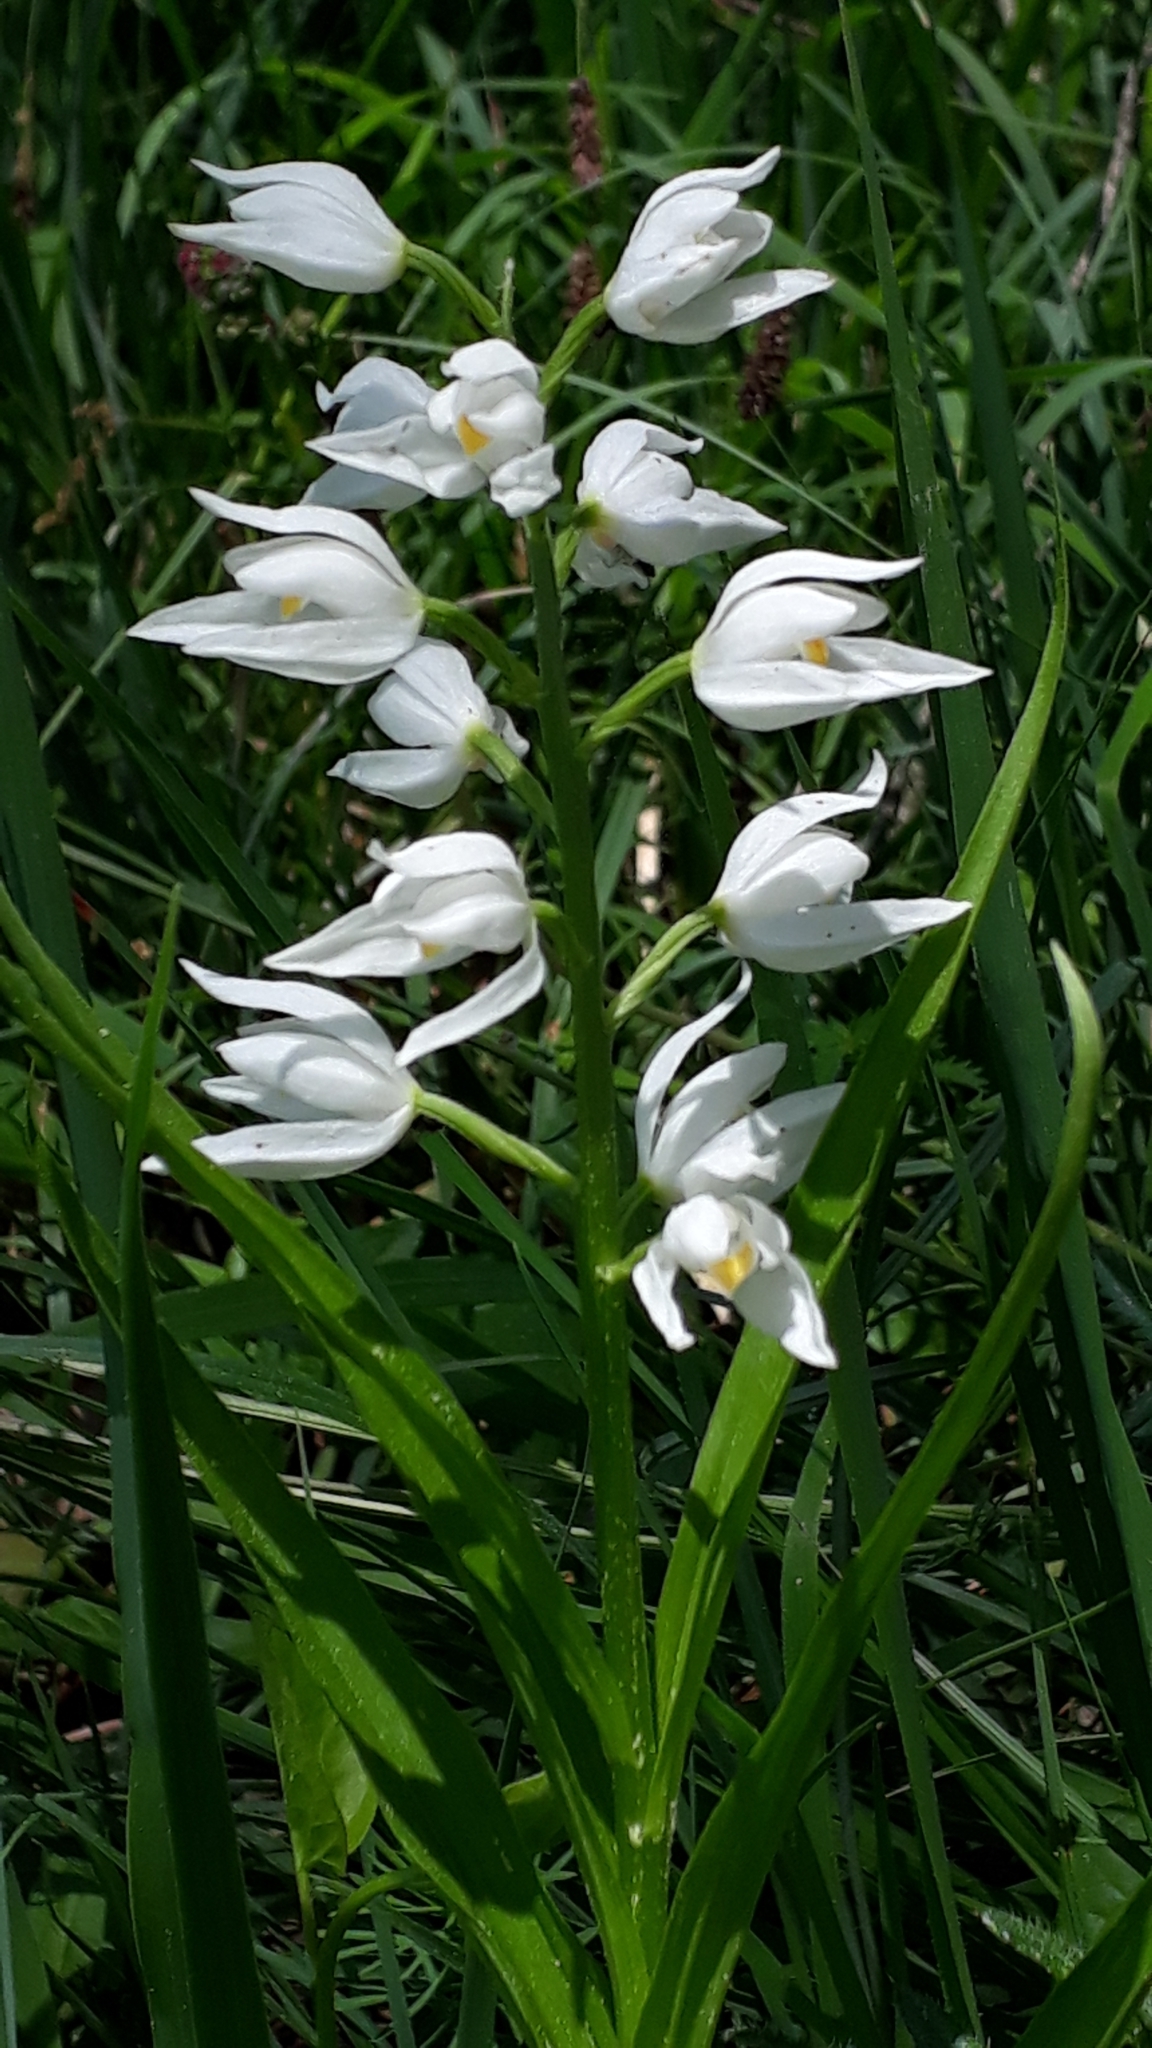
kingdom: Plantae
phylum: Tracheophyta
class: Liliopsida
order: Asparagales
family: Orchidaceae
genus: Cephalanthera
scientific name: Cephalanthera longifolia
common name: Narrow-leaved helleborine
